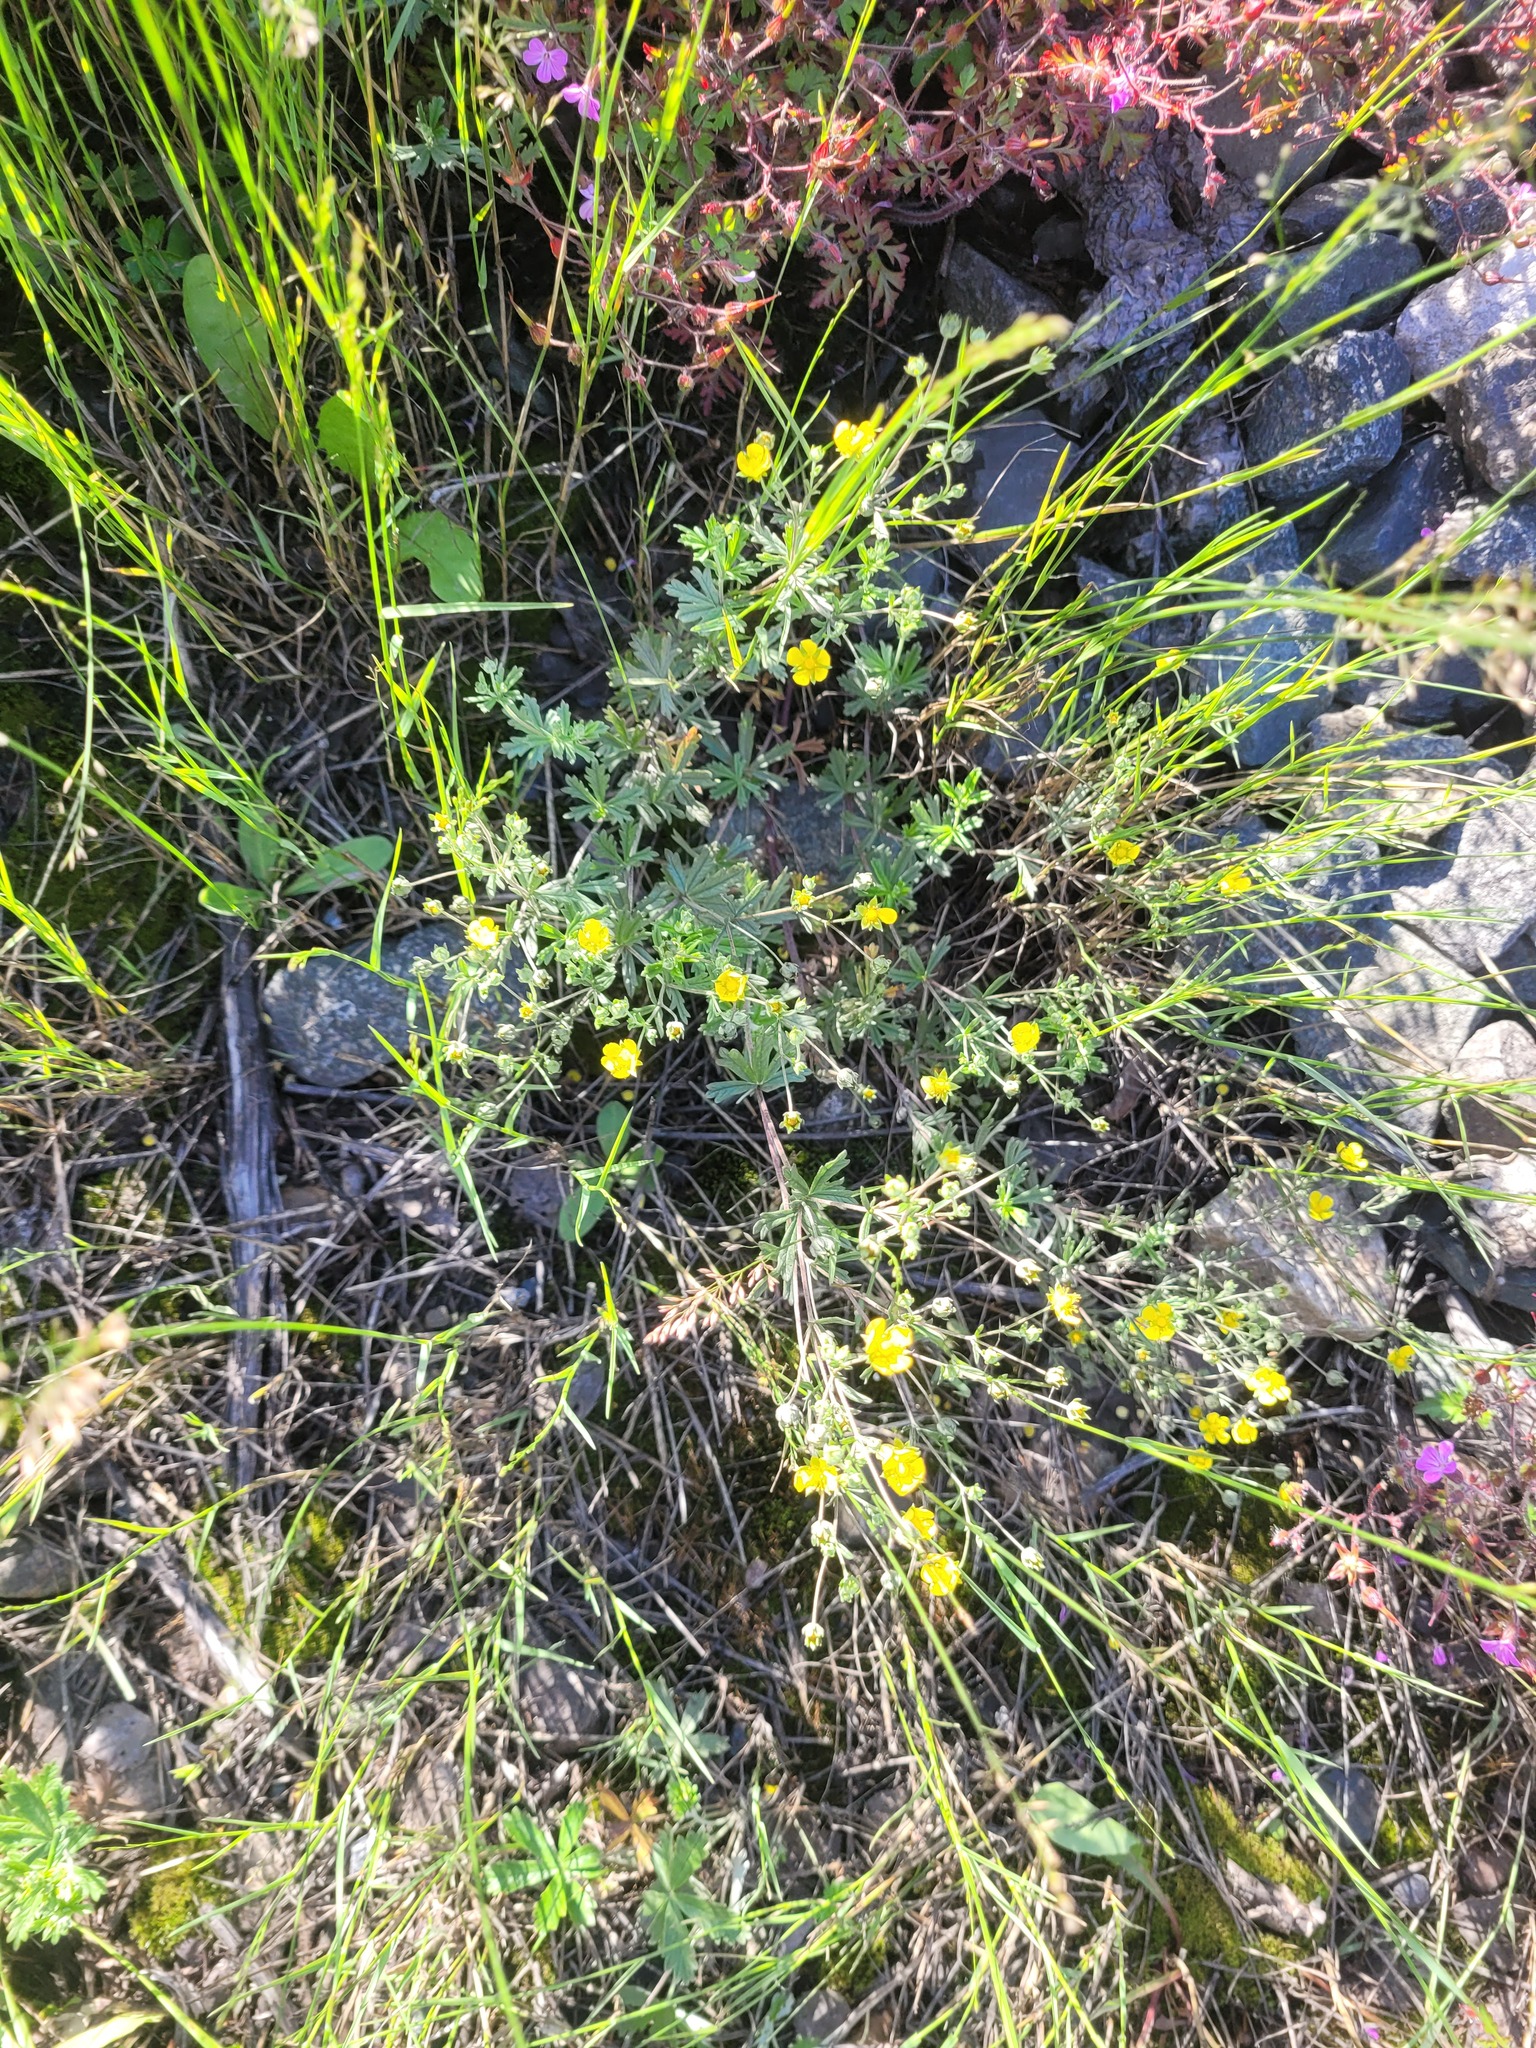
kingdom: Plantae
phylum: Tracheophyta
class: Magnoliopsida
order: Rosales
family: Rosaceae
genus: Potentilla
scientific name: Potentilla argentea
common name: Hoary cinquefoil
